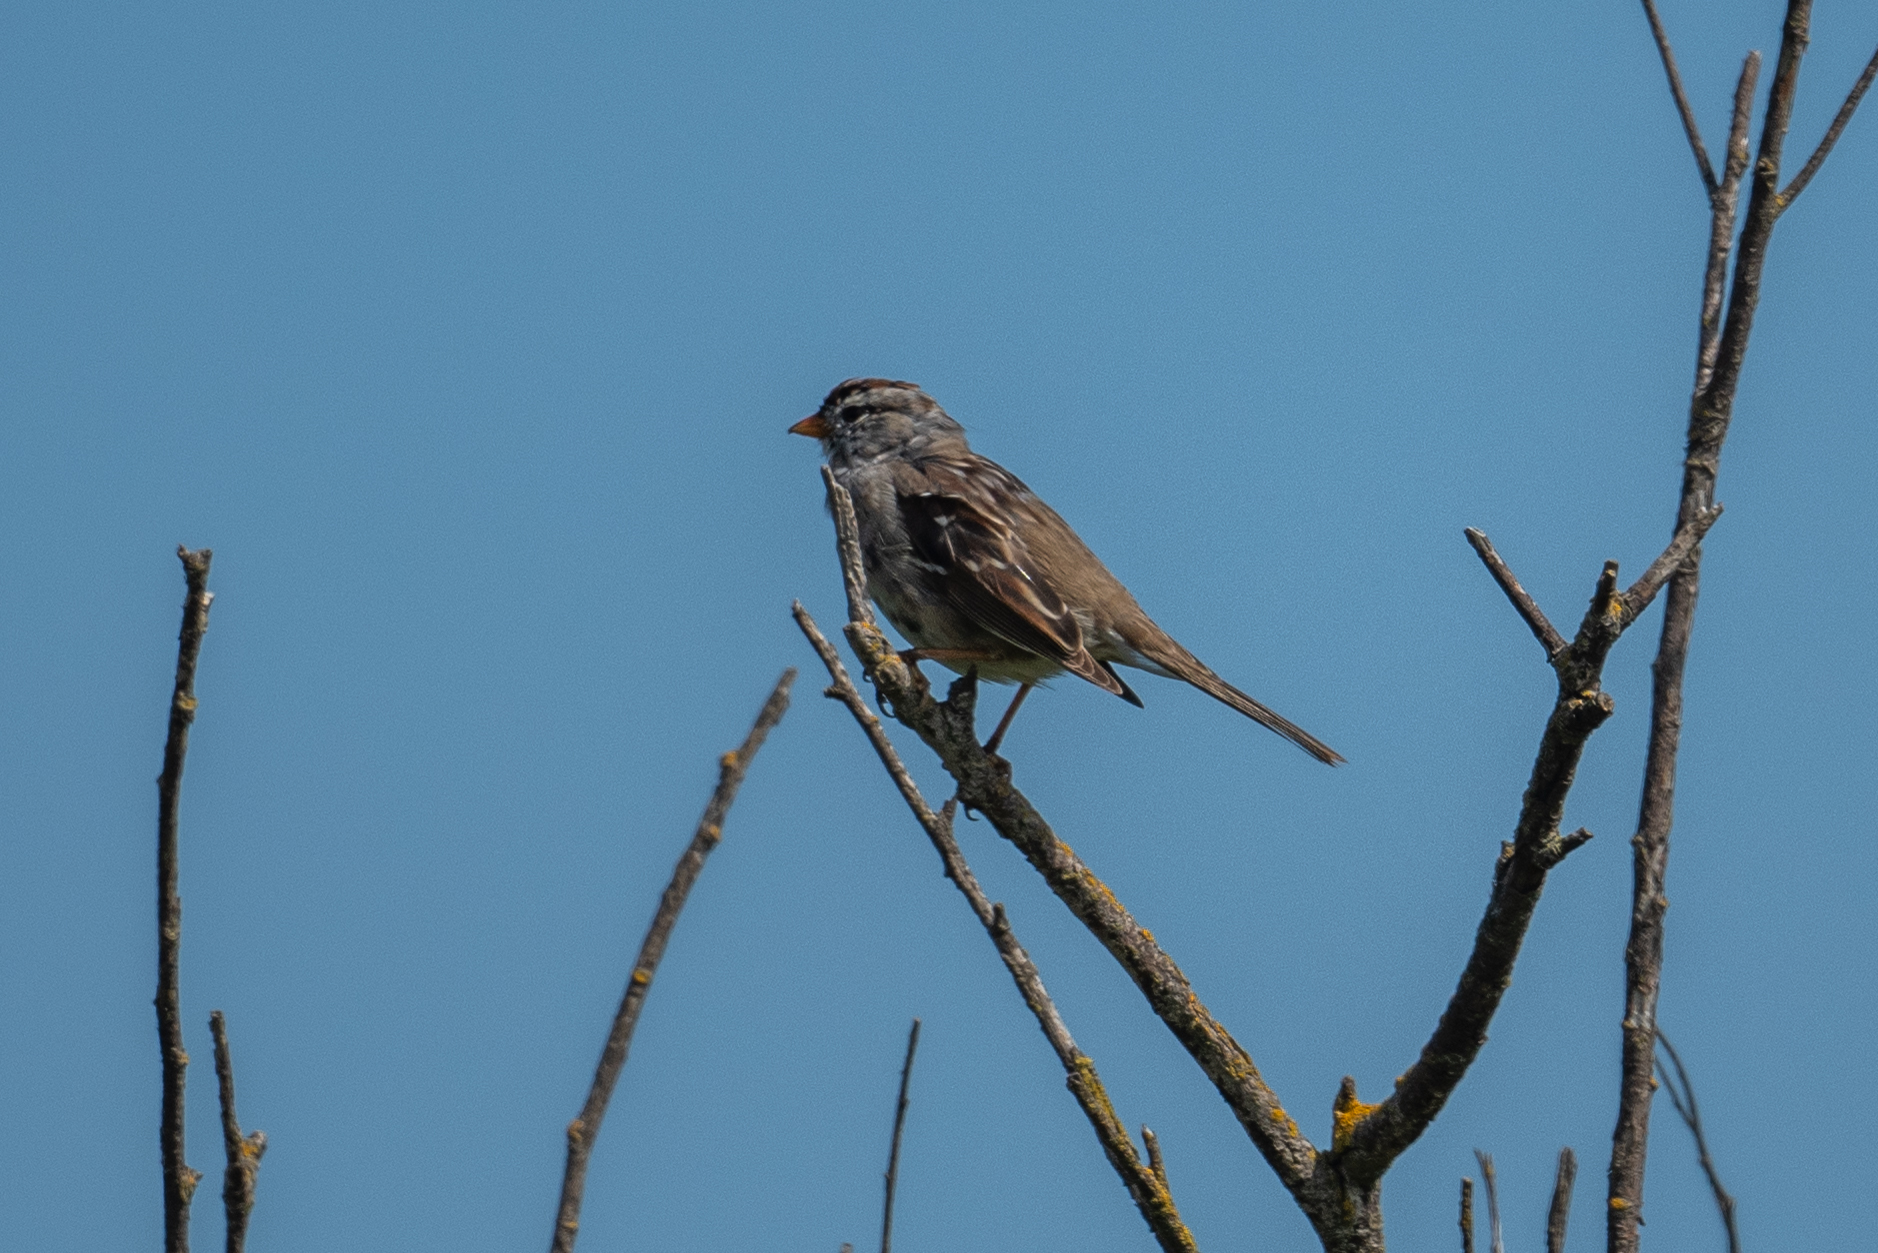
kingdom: Animalia
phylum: Chordata
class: Aves
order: Passeriformes
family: Passerellidae
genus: Zonotrichia
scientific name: Zonotrichia leucophrys
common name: White-crowned sparrow
